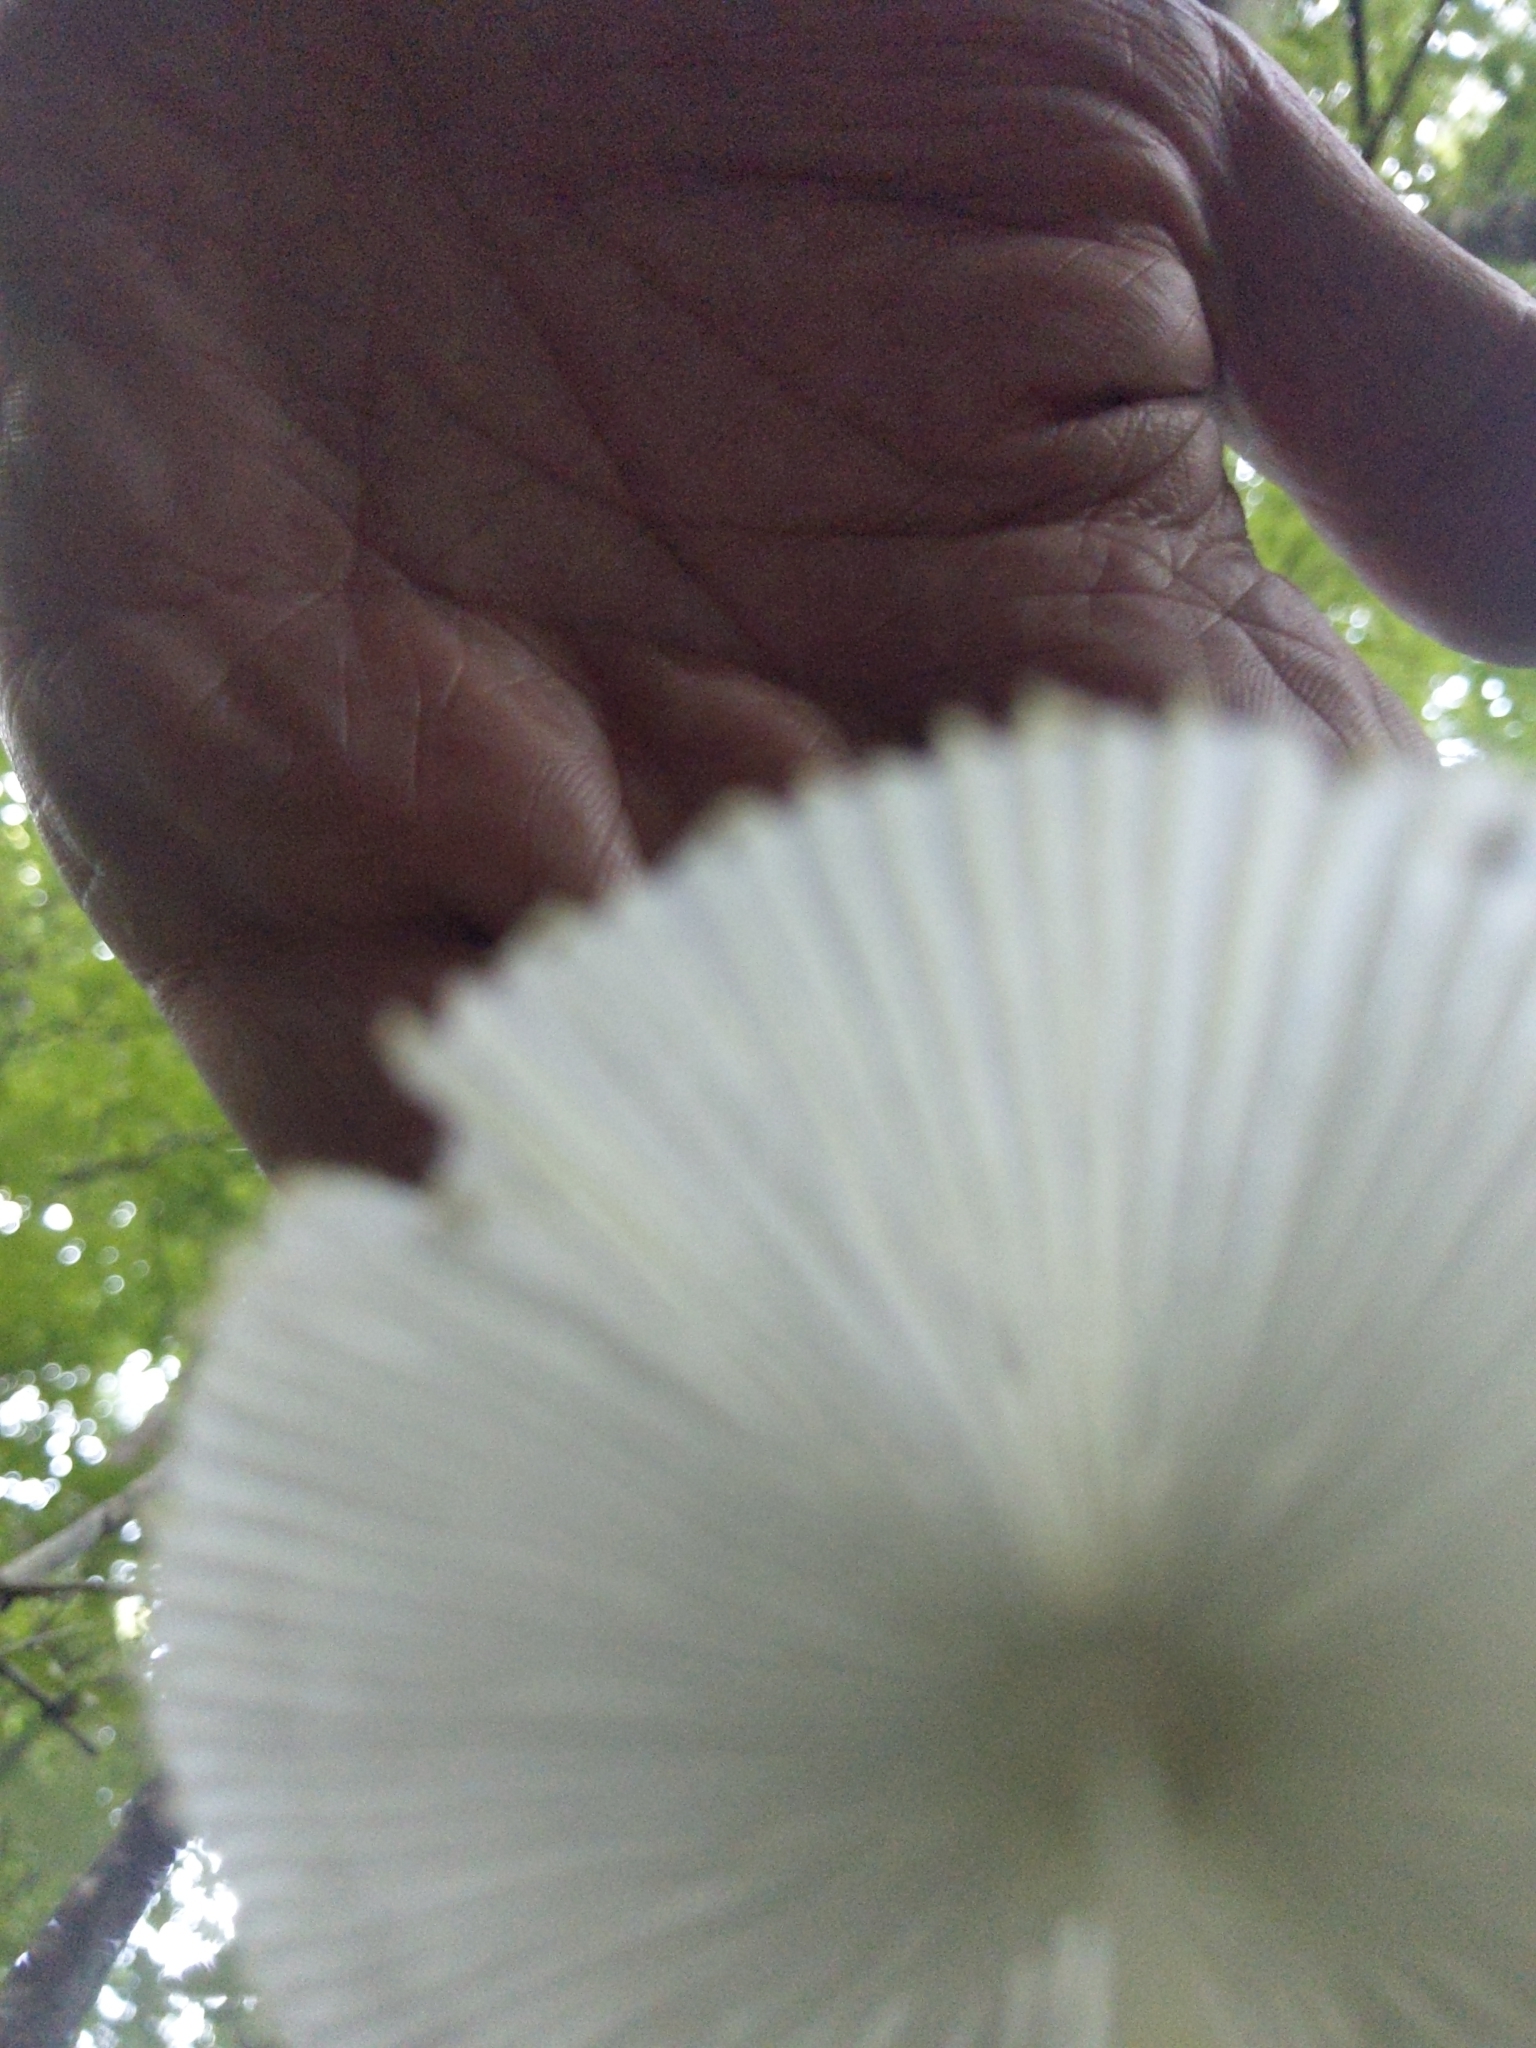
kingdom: Fungi
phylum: Basidiomycota
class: Agaricomycetes
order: Agaricales
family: Agaricaceae
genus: Leucocoprinus
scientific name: Leucocoprinus fragilissimus
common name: Fragile dapperling
